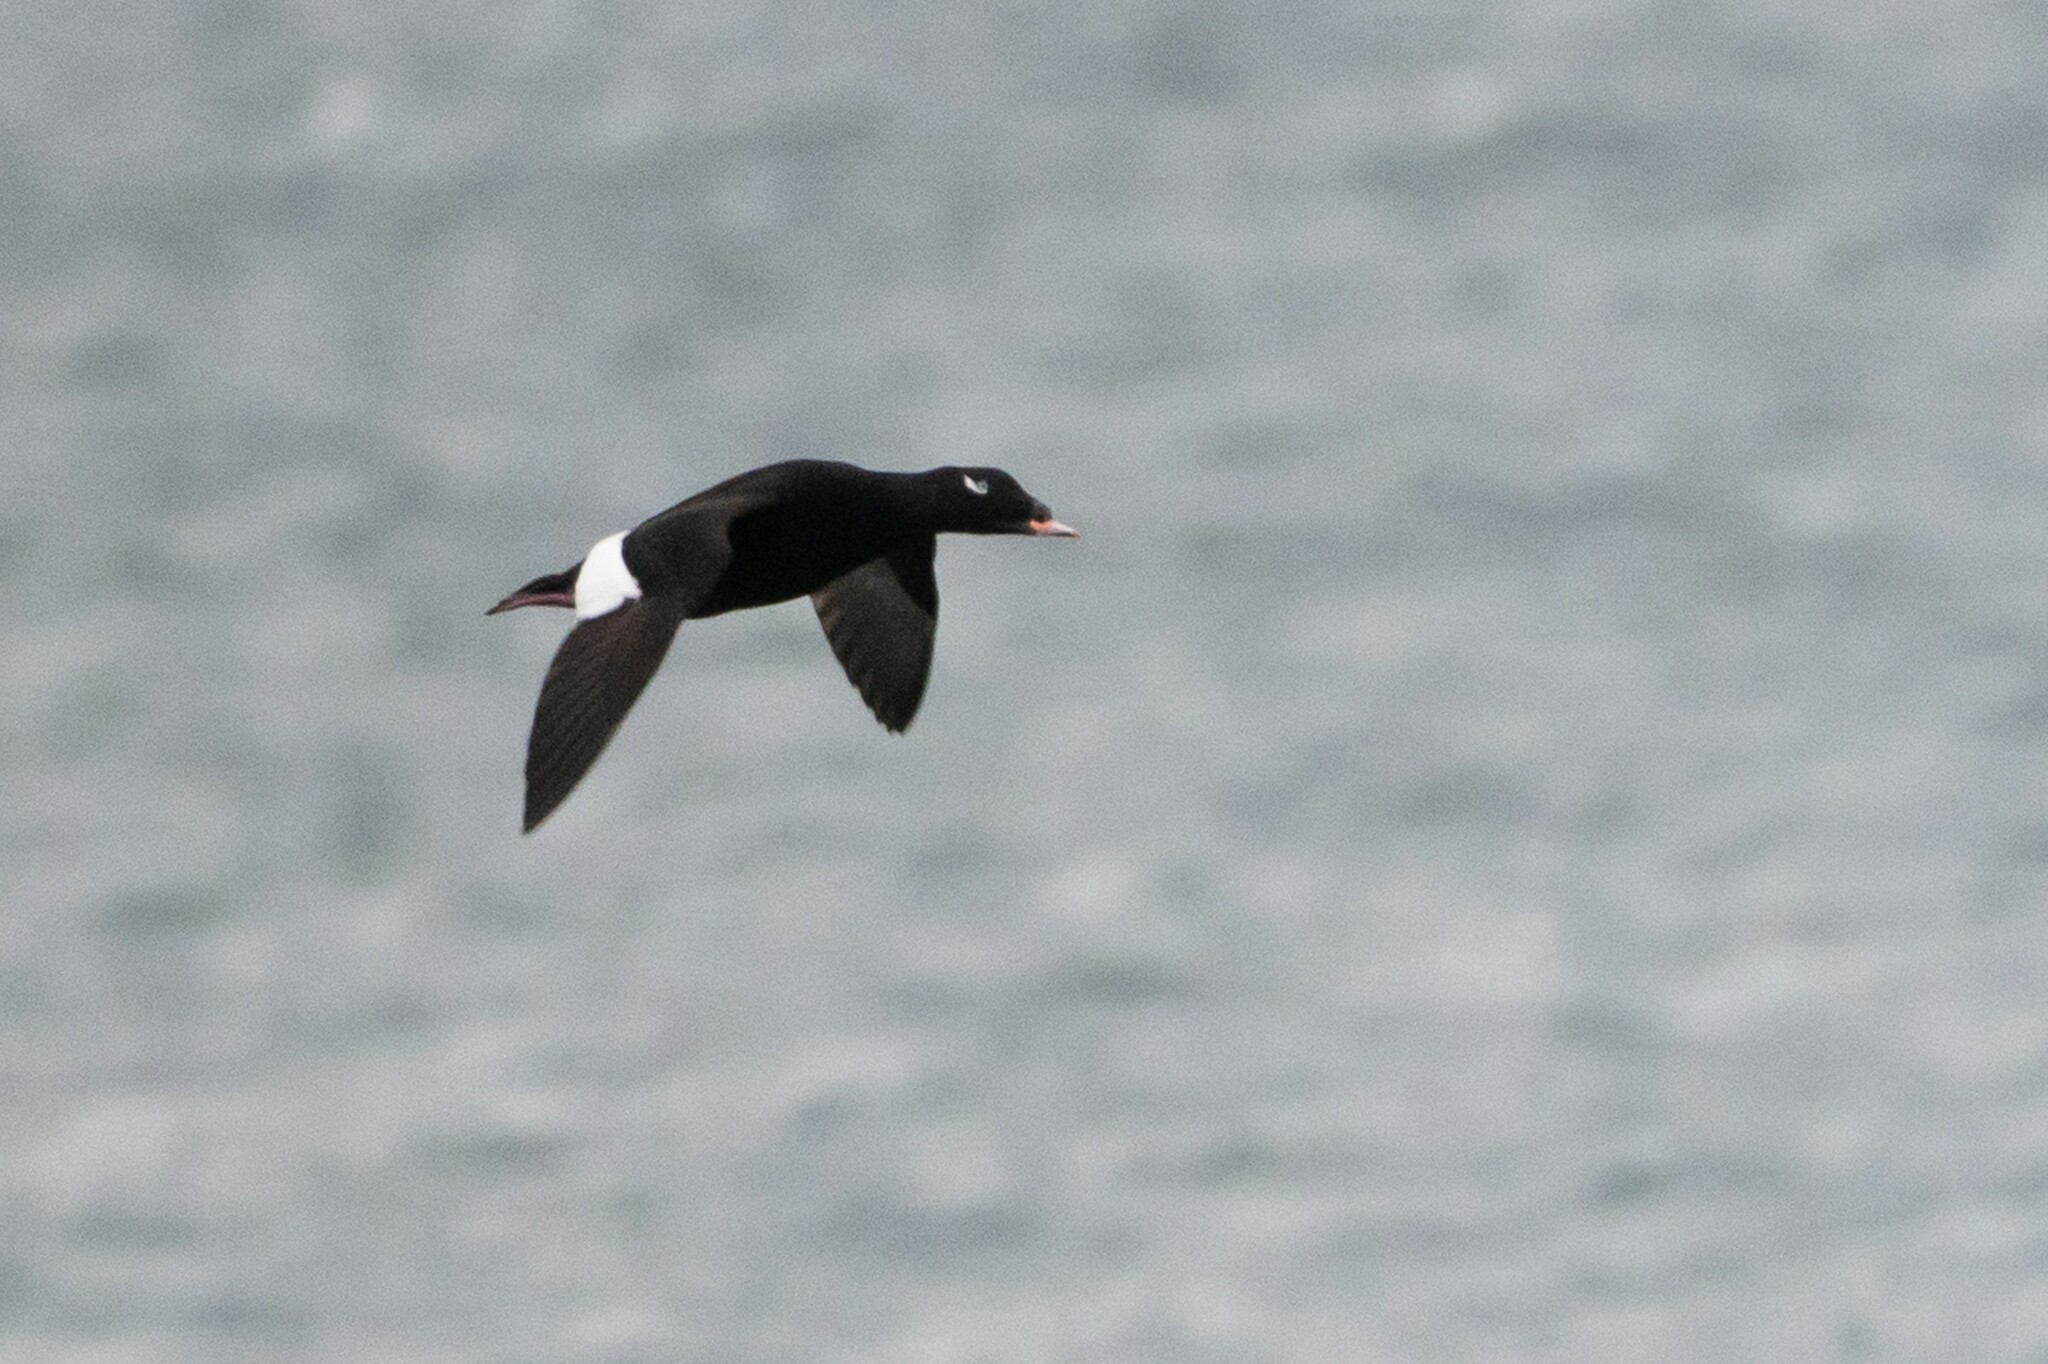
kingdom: Animalia
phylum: Chordata
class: Aves
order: Anseriformes
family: Anatidae
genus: Melanitta
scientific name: Melanitta deglandi
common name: White-winged scoter
